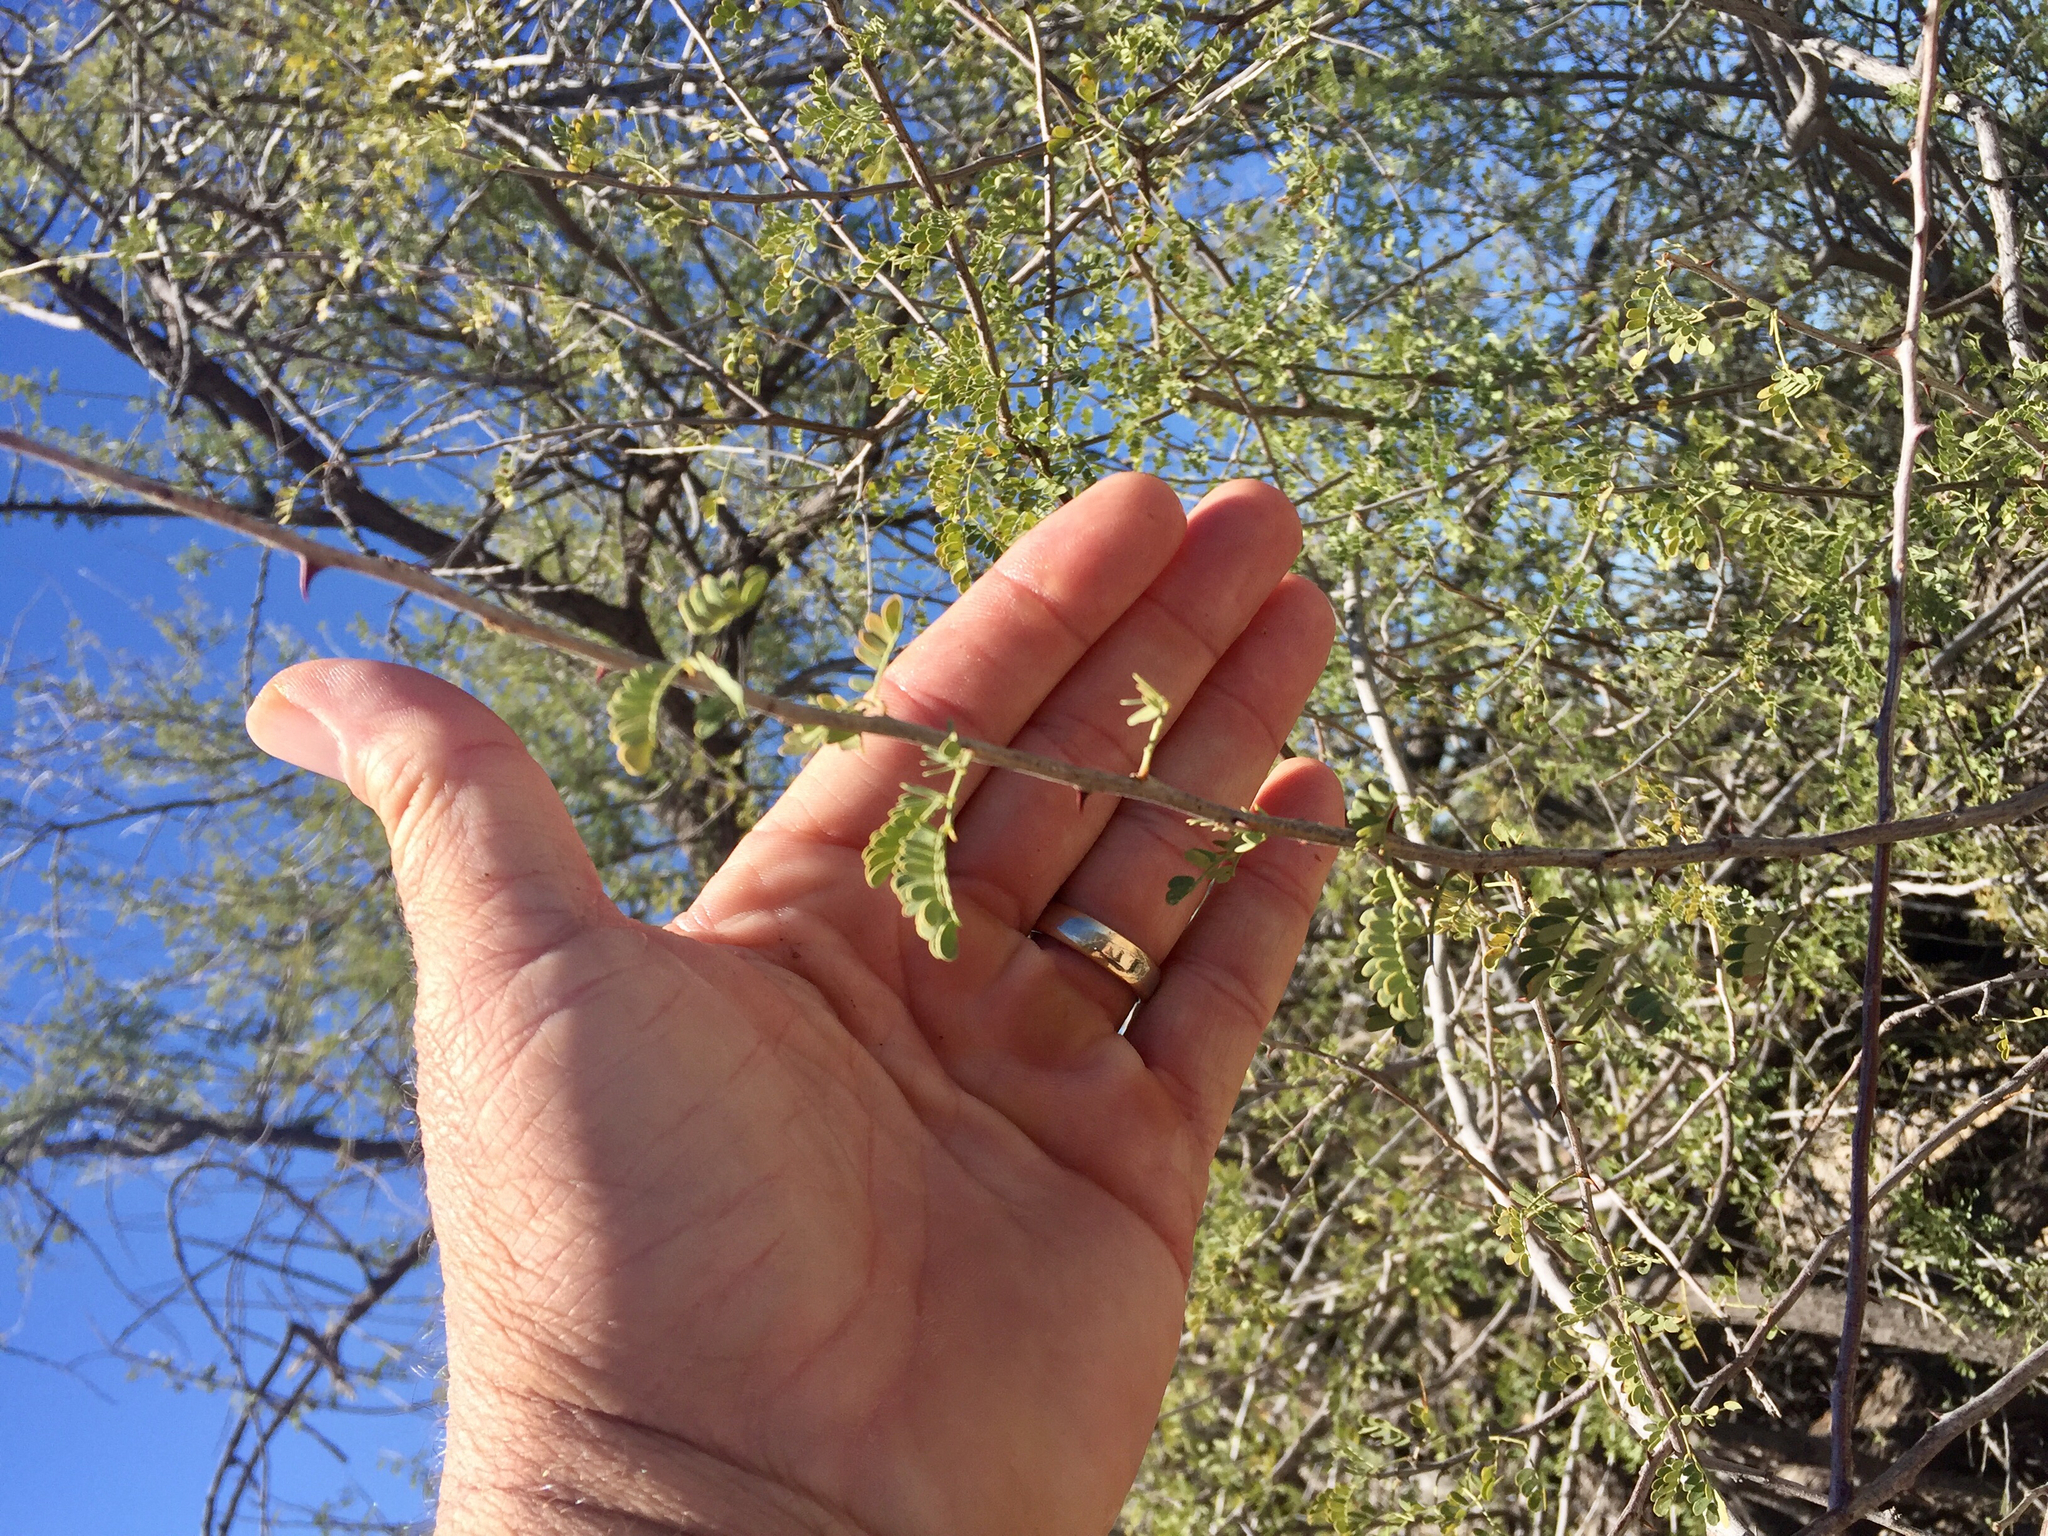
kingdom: Plantae
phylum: Tracheophyta
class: Magnoliopsida
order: Fabales
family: Fabaceae
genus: Senegalia
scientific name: Senegalia greggii
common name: Texas-mimosa
